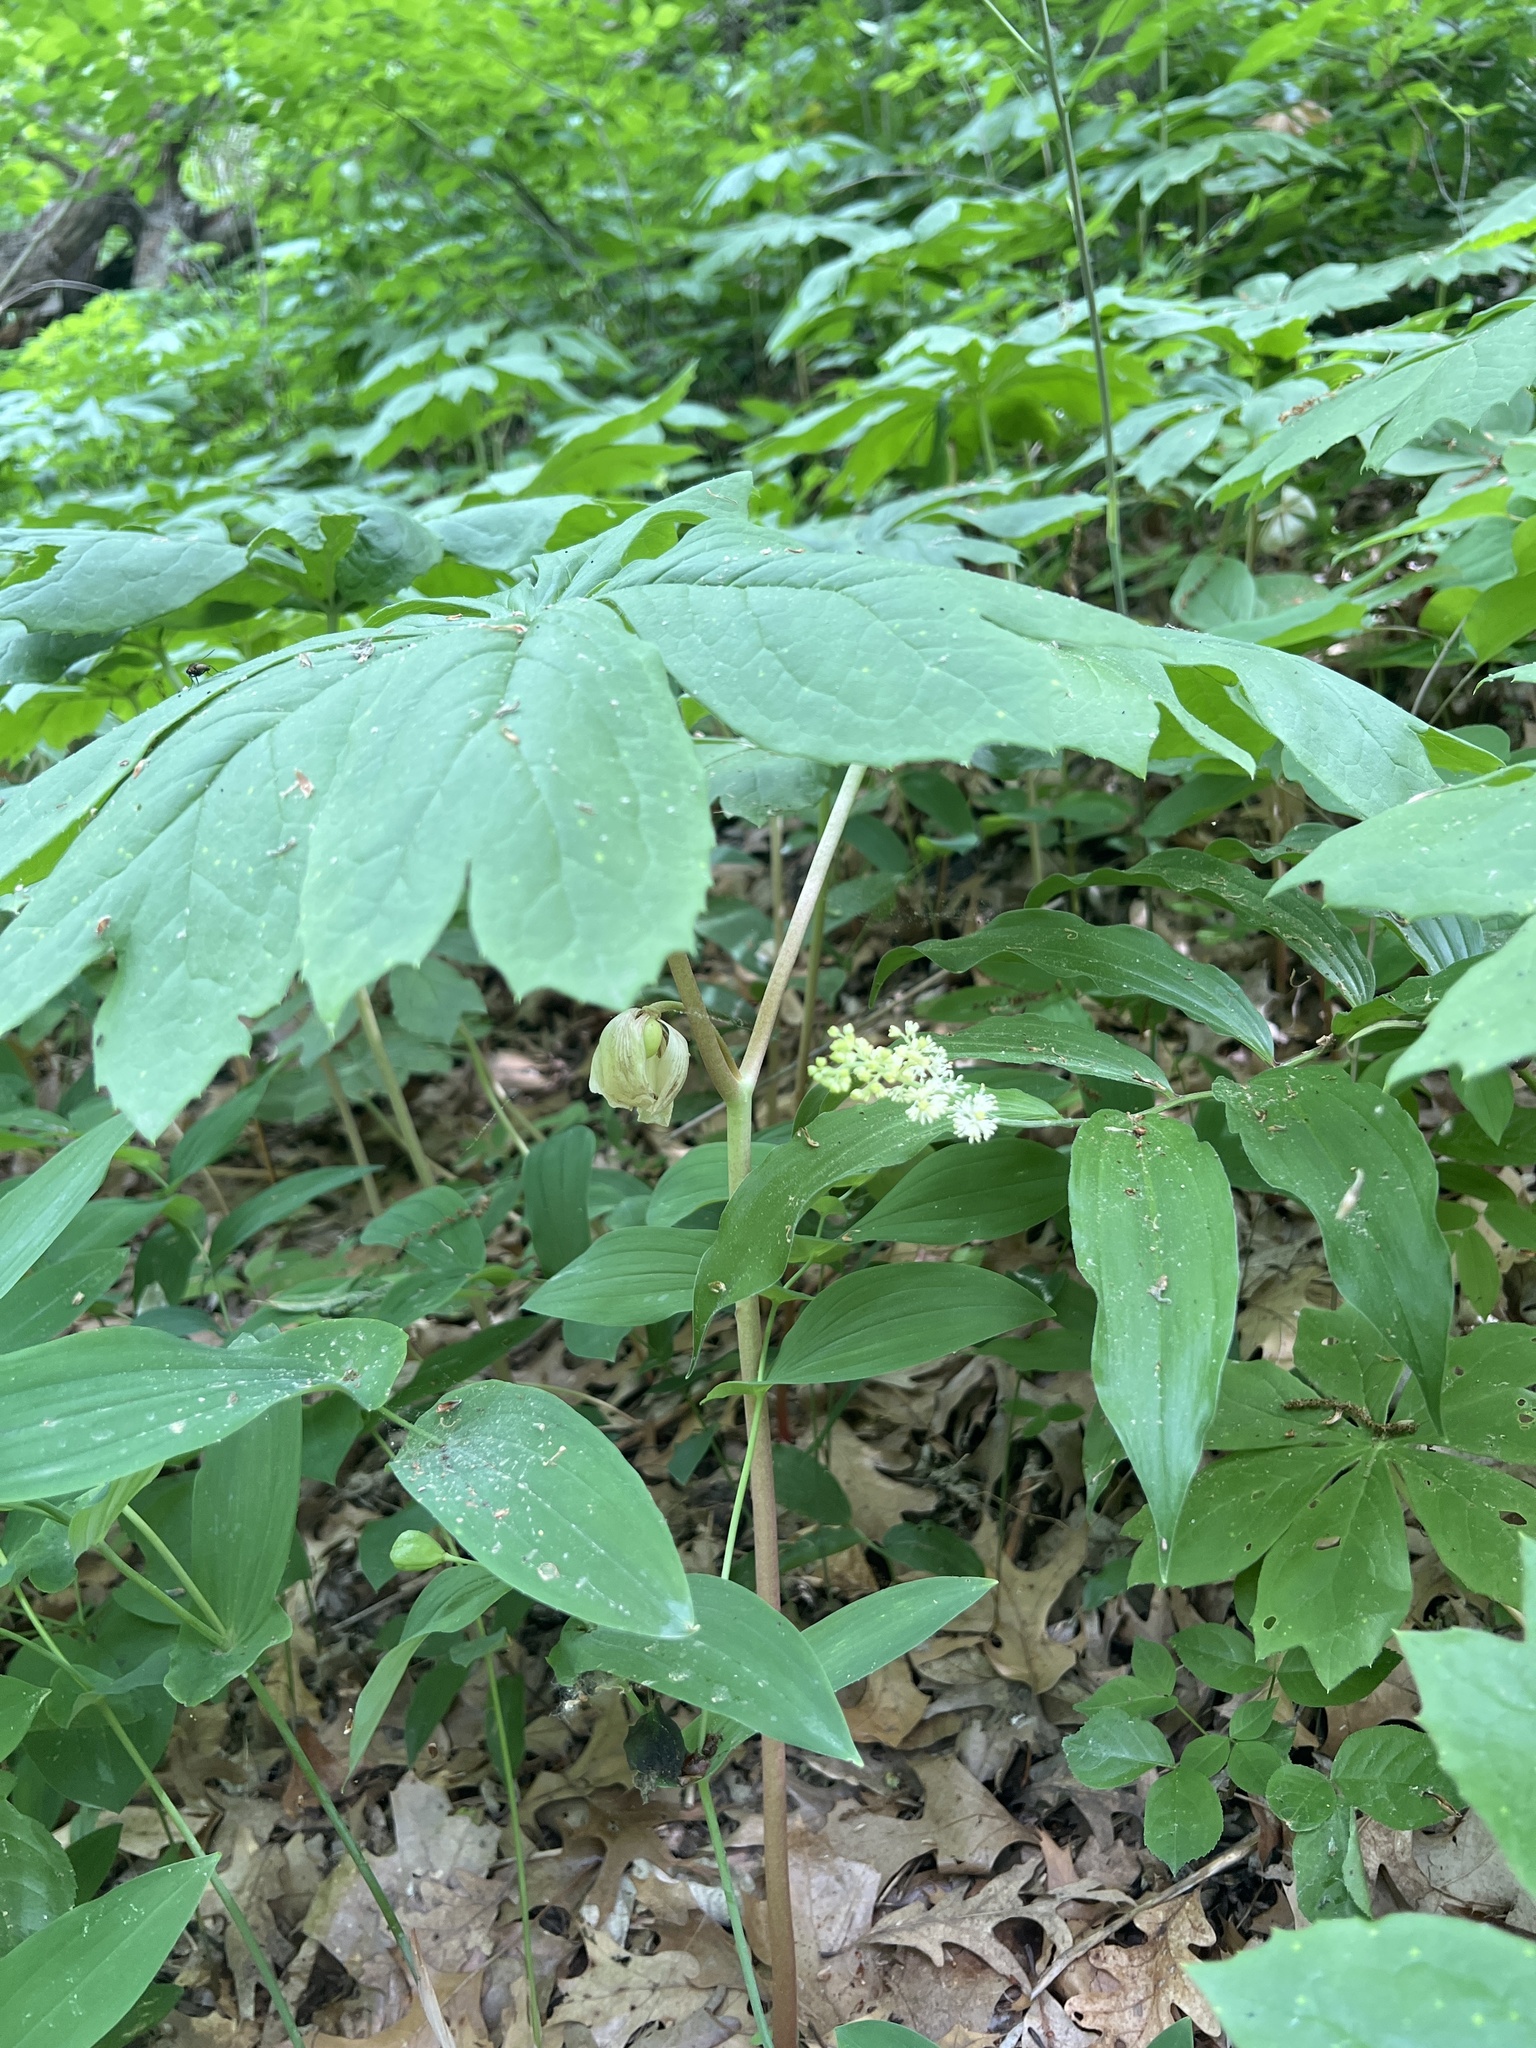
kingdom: Plantae
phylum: Tracheophyta
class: Magnoliopsida
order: Ranunculales
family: Berberidaceae
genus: Podophyllum
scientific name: Podophyllum peltatum
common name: Wild mandrake
